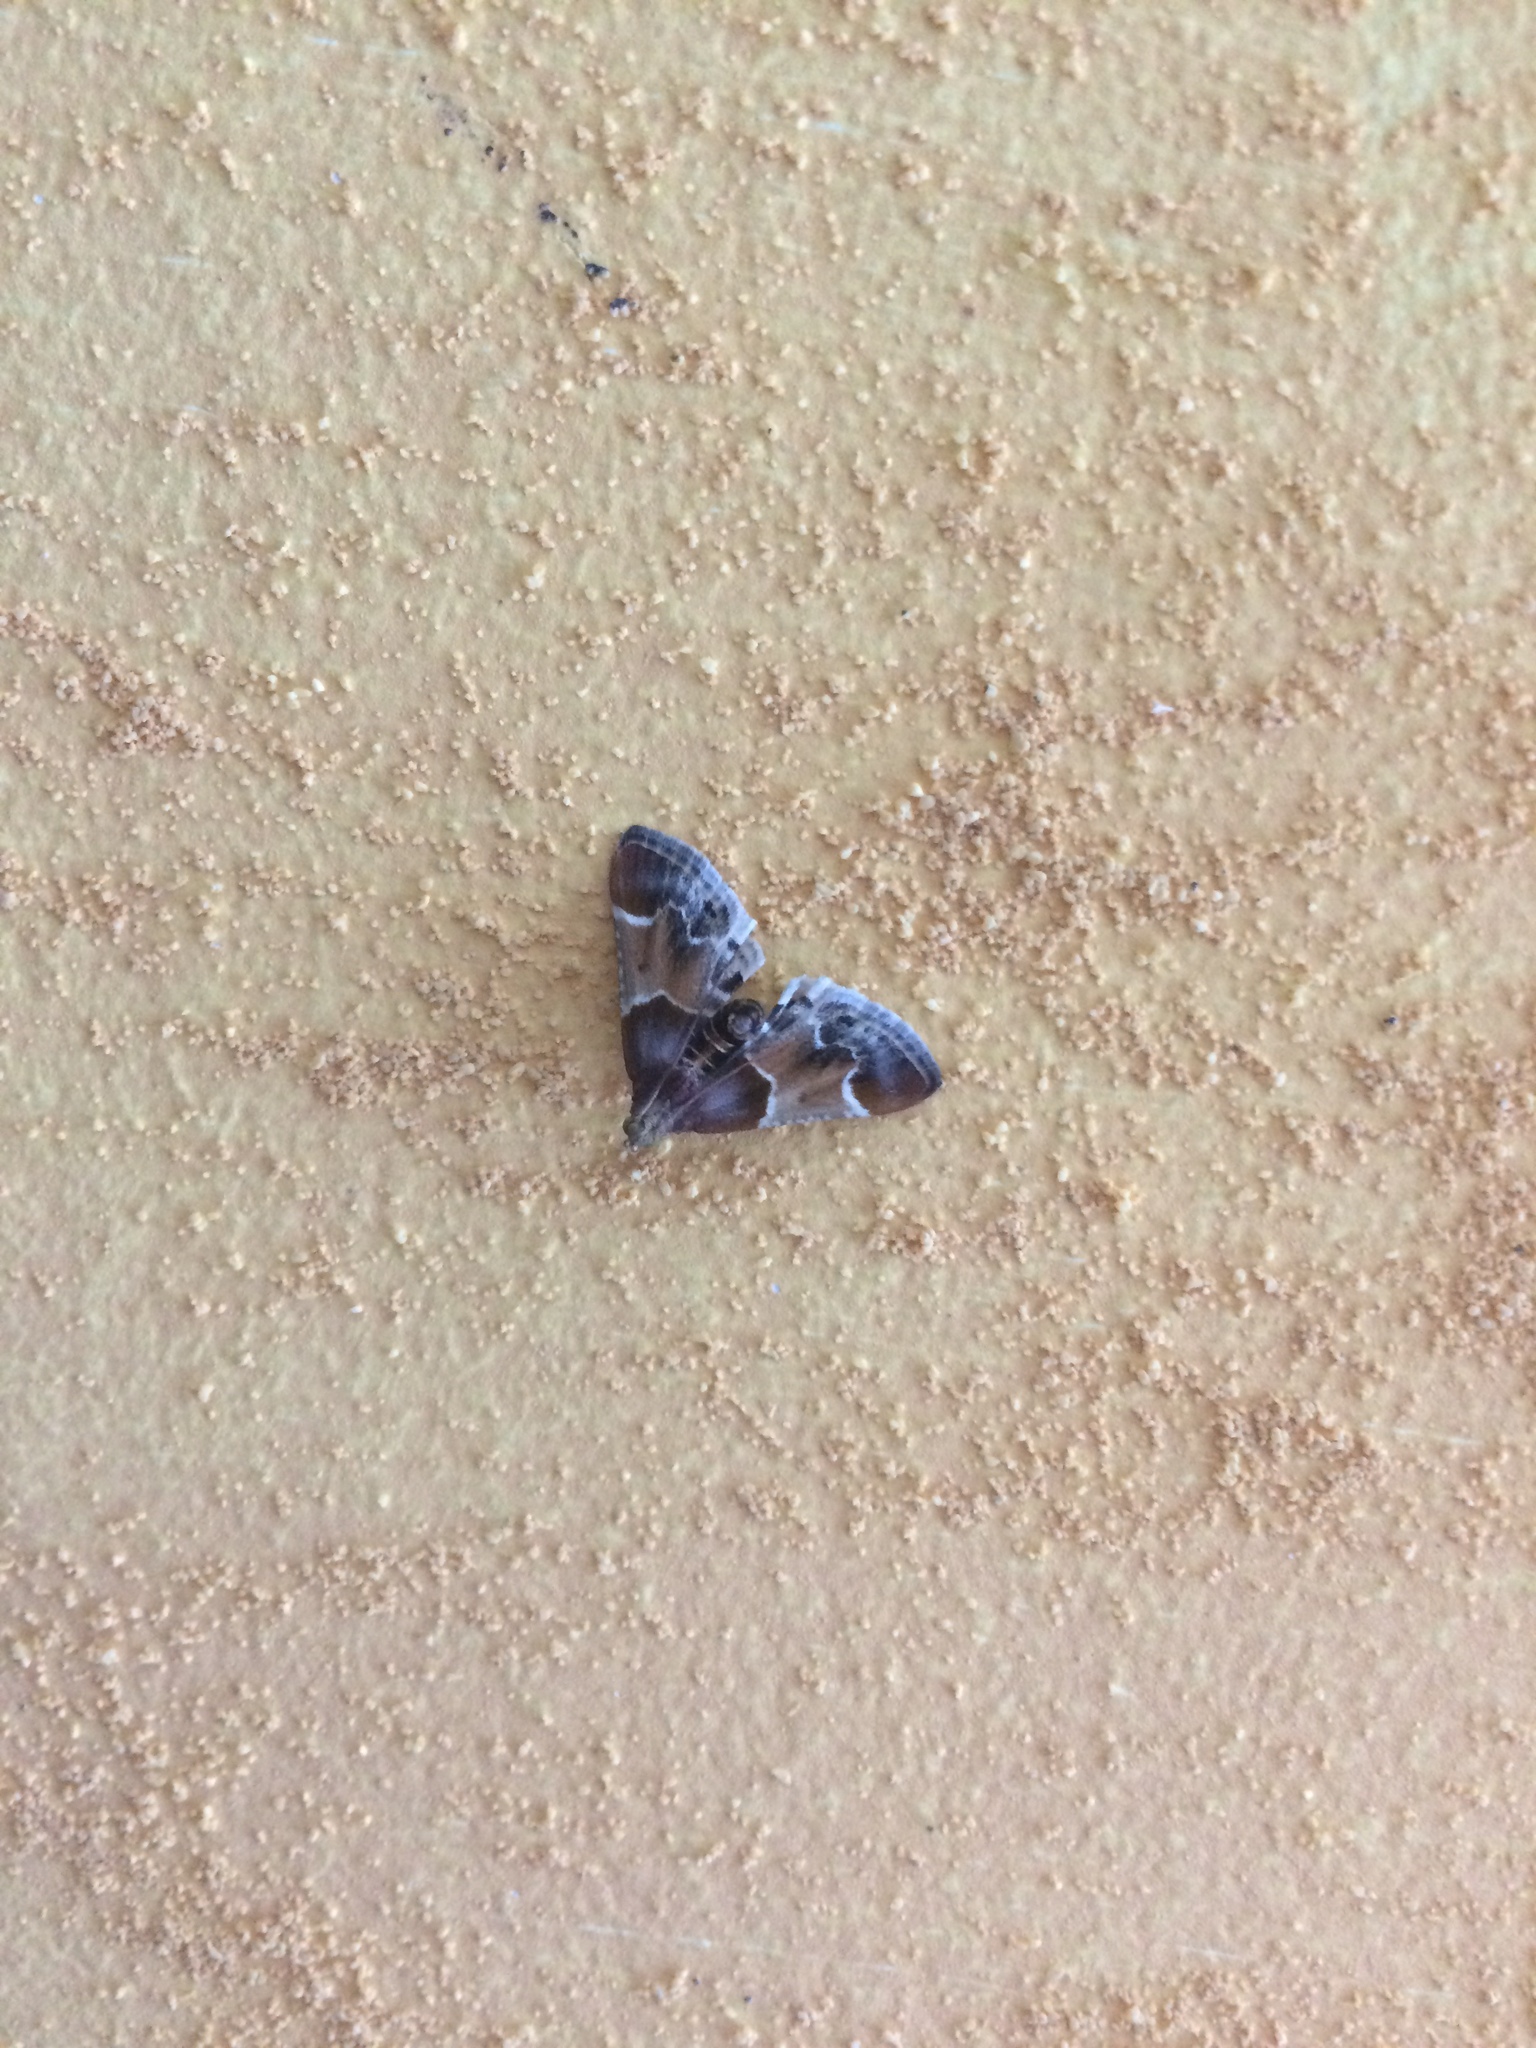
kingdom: Animalia
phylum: Arthropoda
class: Insecta
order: Lepidoptera
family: Pyralidae
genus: Pyralis
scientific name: Pyralis farinalis
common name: Meal moth
